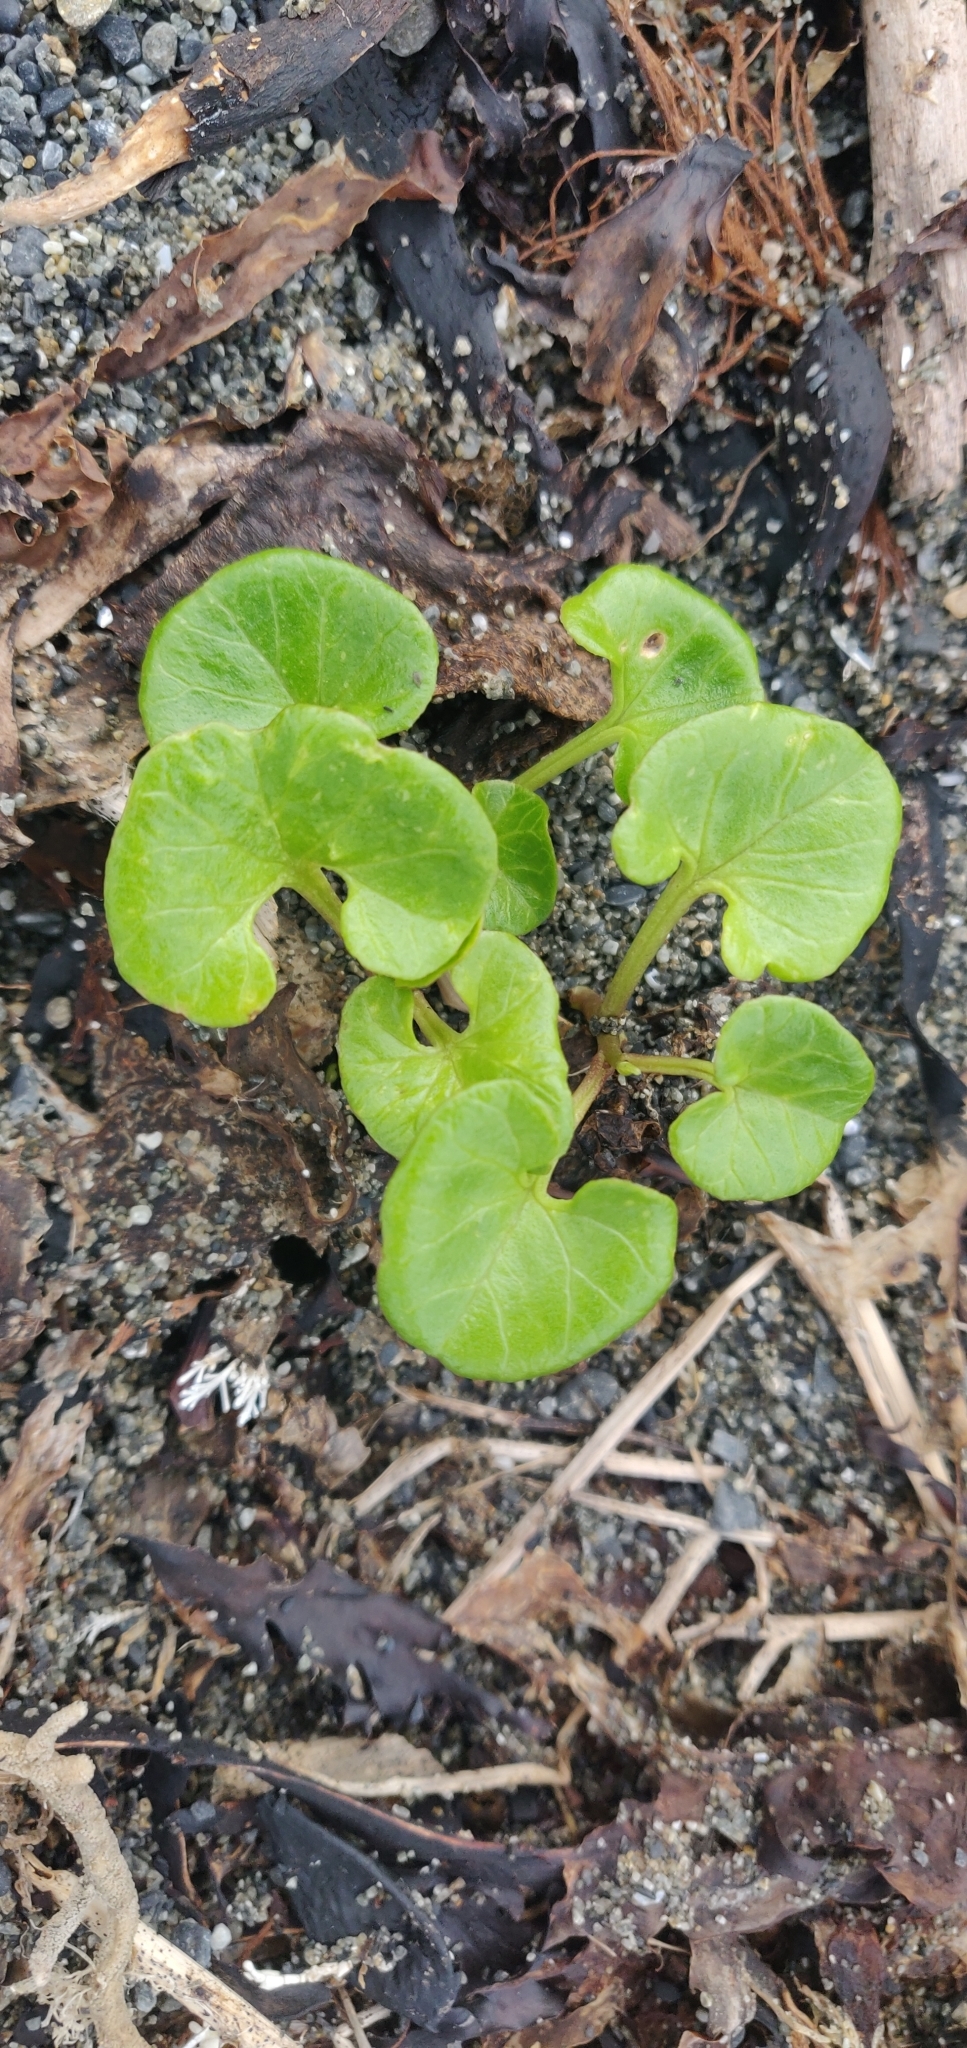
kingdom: Plantae
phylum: Tracheophyta
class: Magnoliopsida
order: Solanales
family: Convolvulaceae
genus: Calystegia
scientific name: Calystegia soldanella
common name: Sea bindweed
